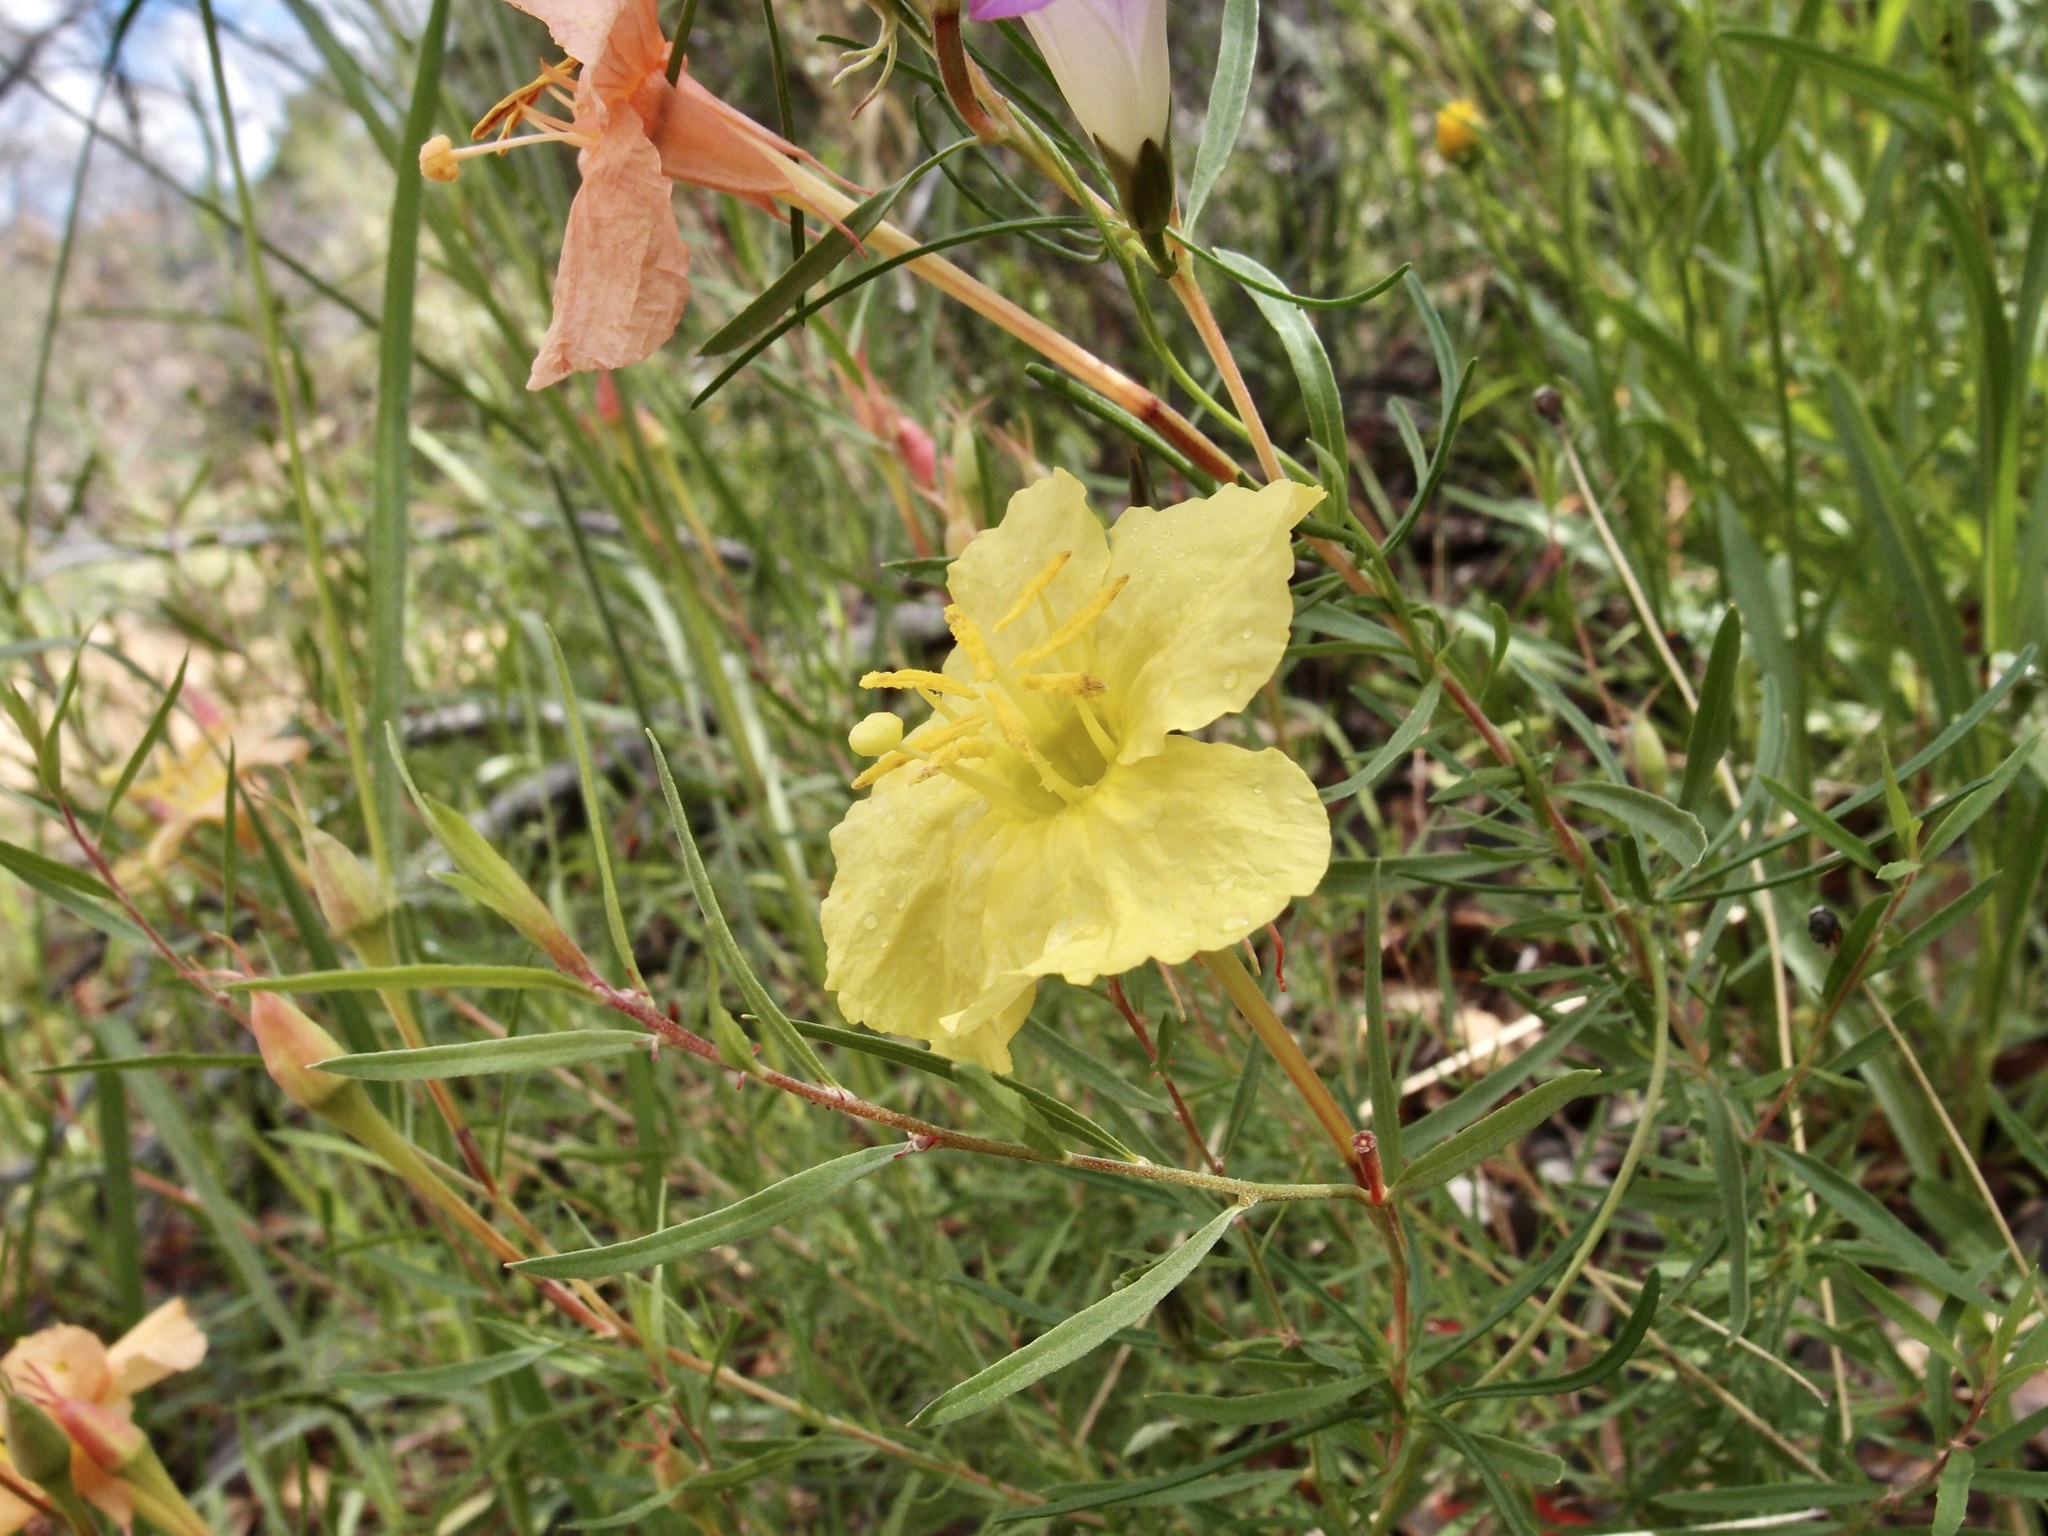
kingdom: Plantae
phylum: Tracheophyta
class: Magnoliopsida
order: Myrtales
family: Onagraceae
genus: Oenothera
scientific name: Oenothera toumeyi
